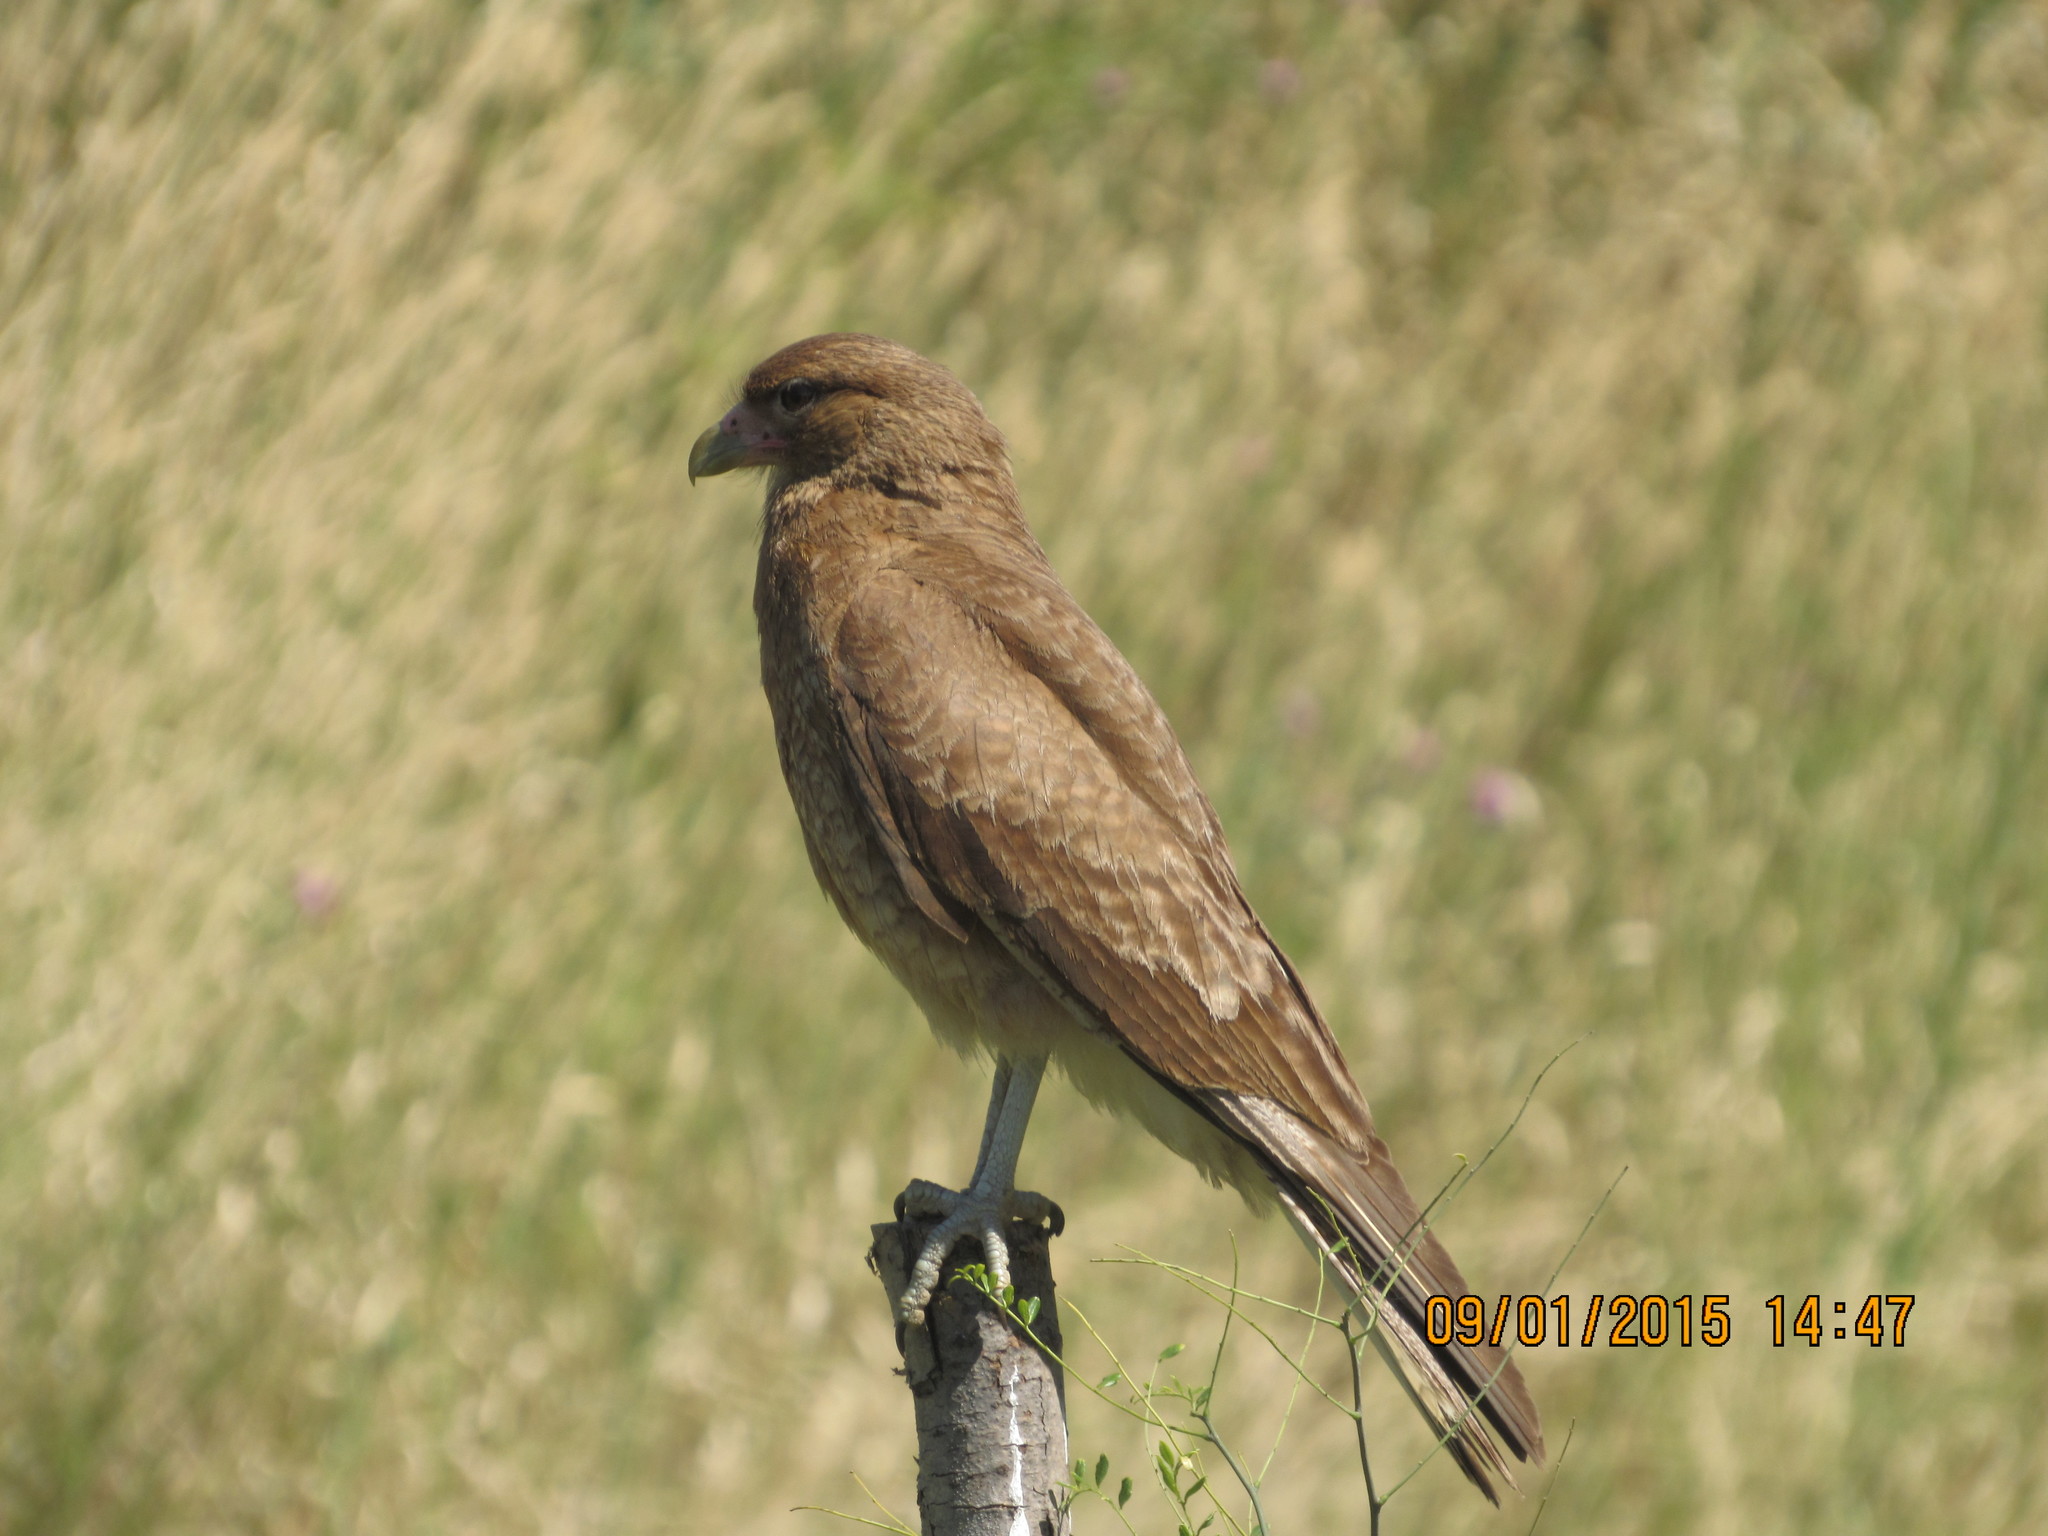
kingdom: Animalia
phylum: Chordata
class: Aves
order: Falconiformes
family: Falconidae
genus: Daptrius
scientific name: Daptrius
